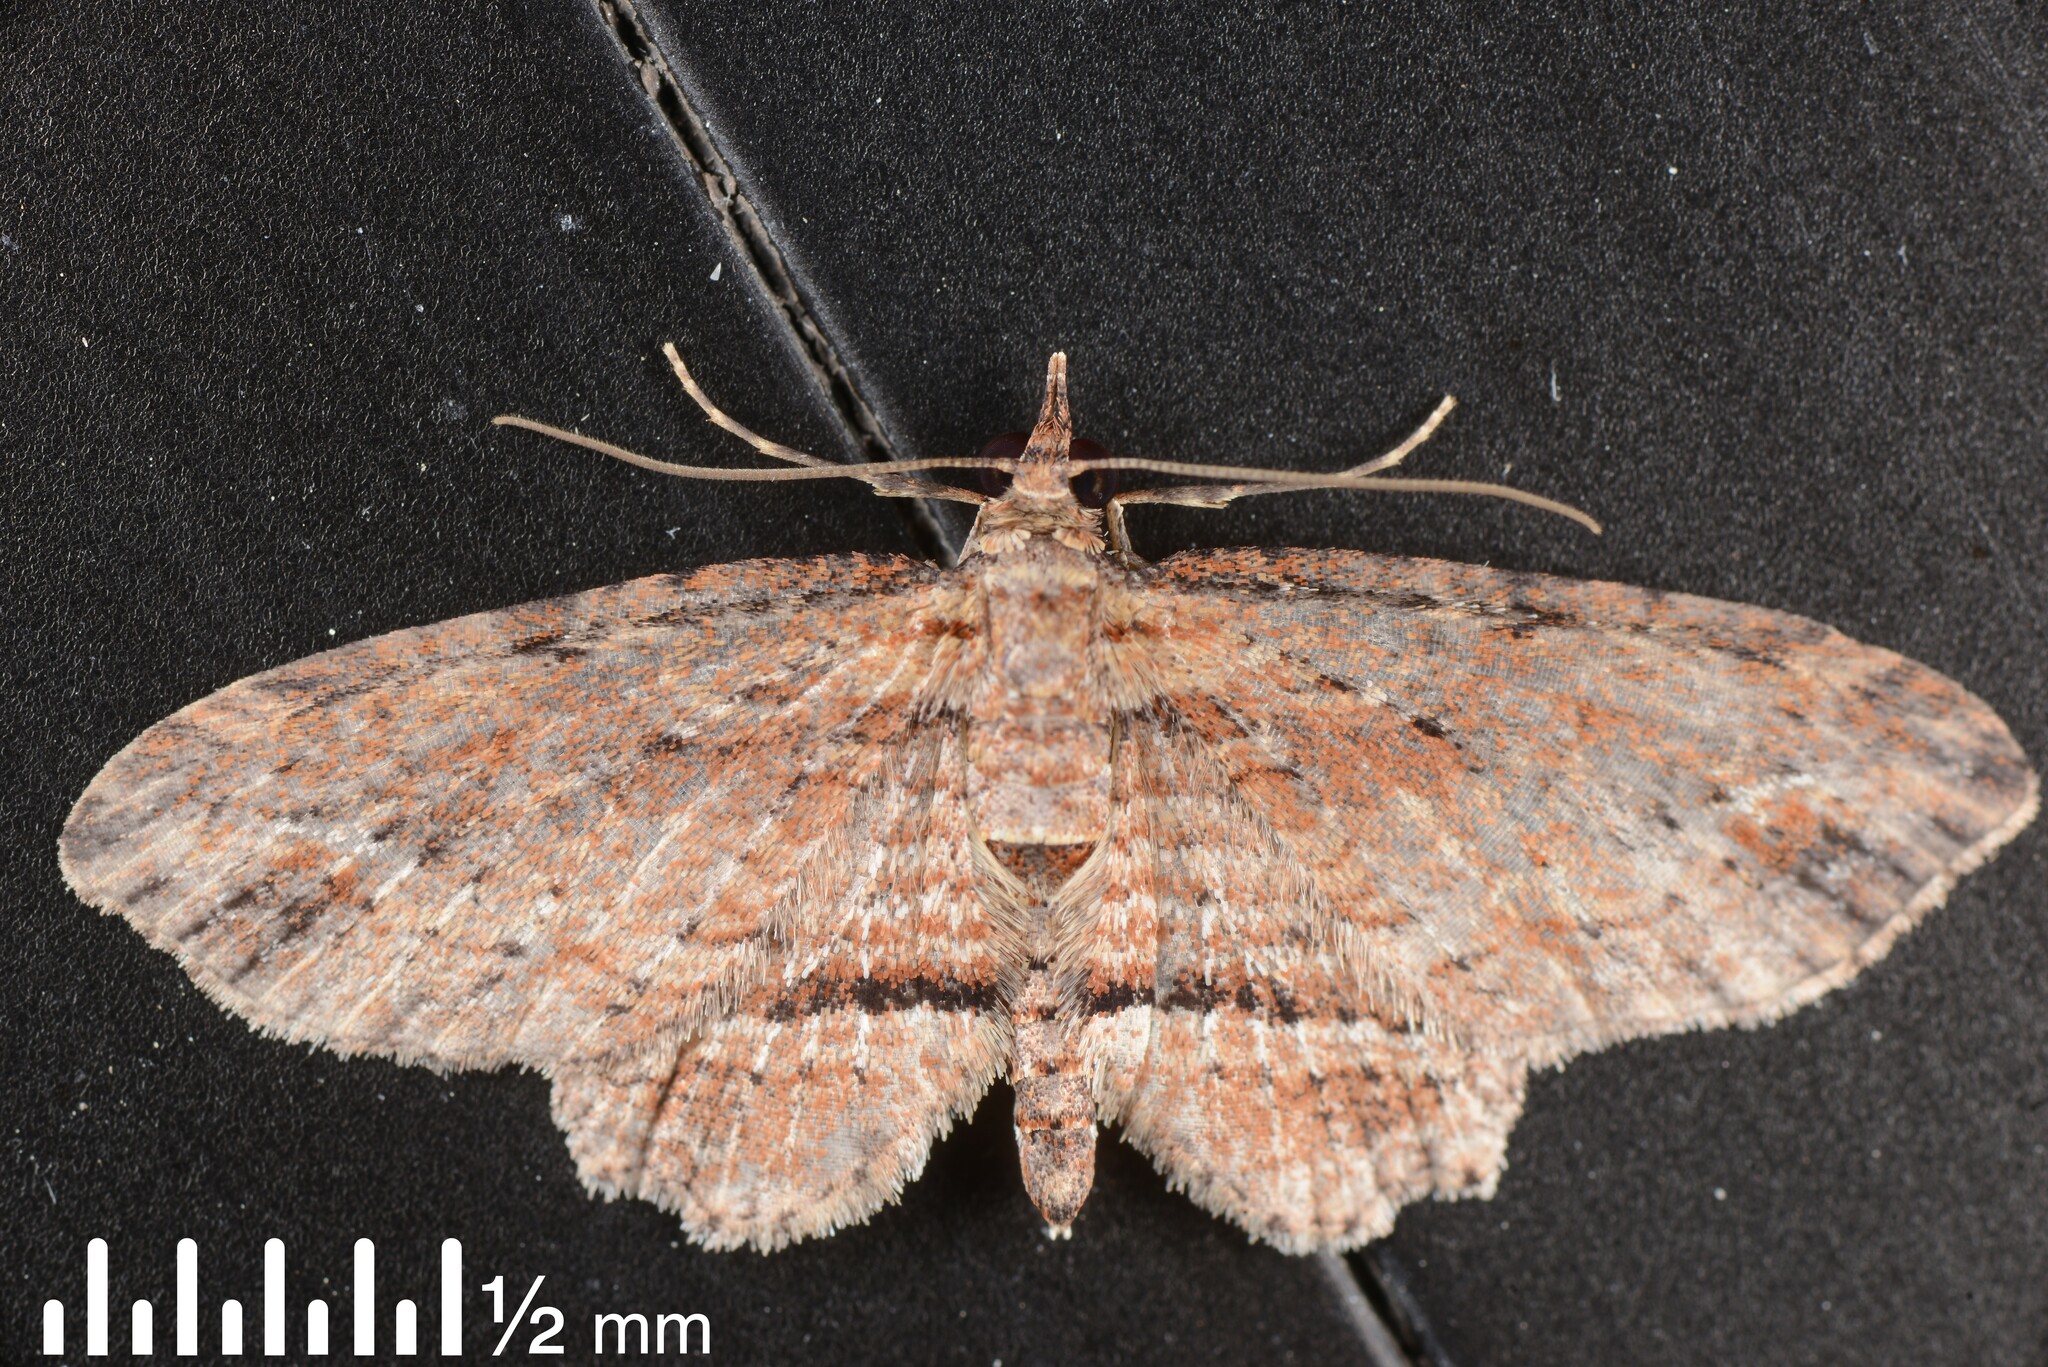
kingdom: Animalia
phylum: Arthropoda
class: Insecta
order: Lepidoptera
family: Geometridae
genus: Chloroclystis
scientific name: Chloroclystis filata
